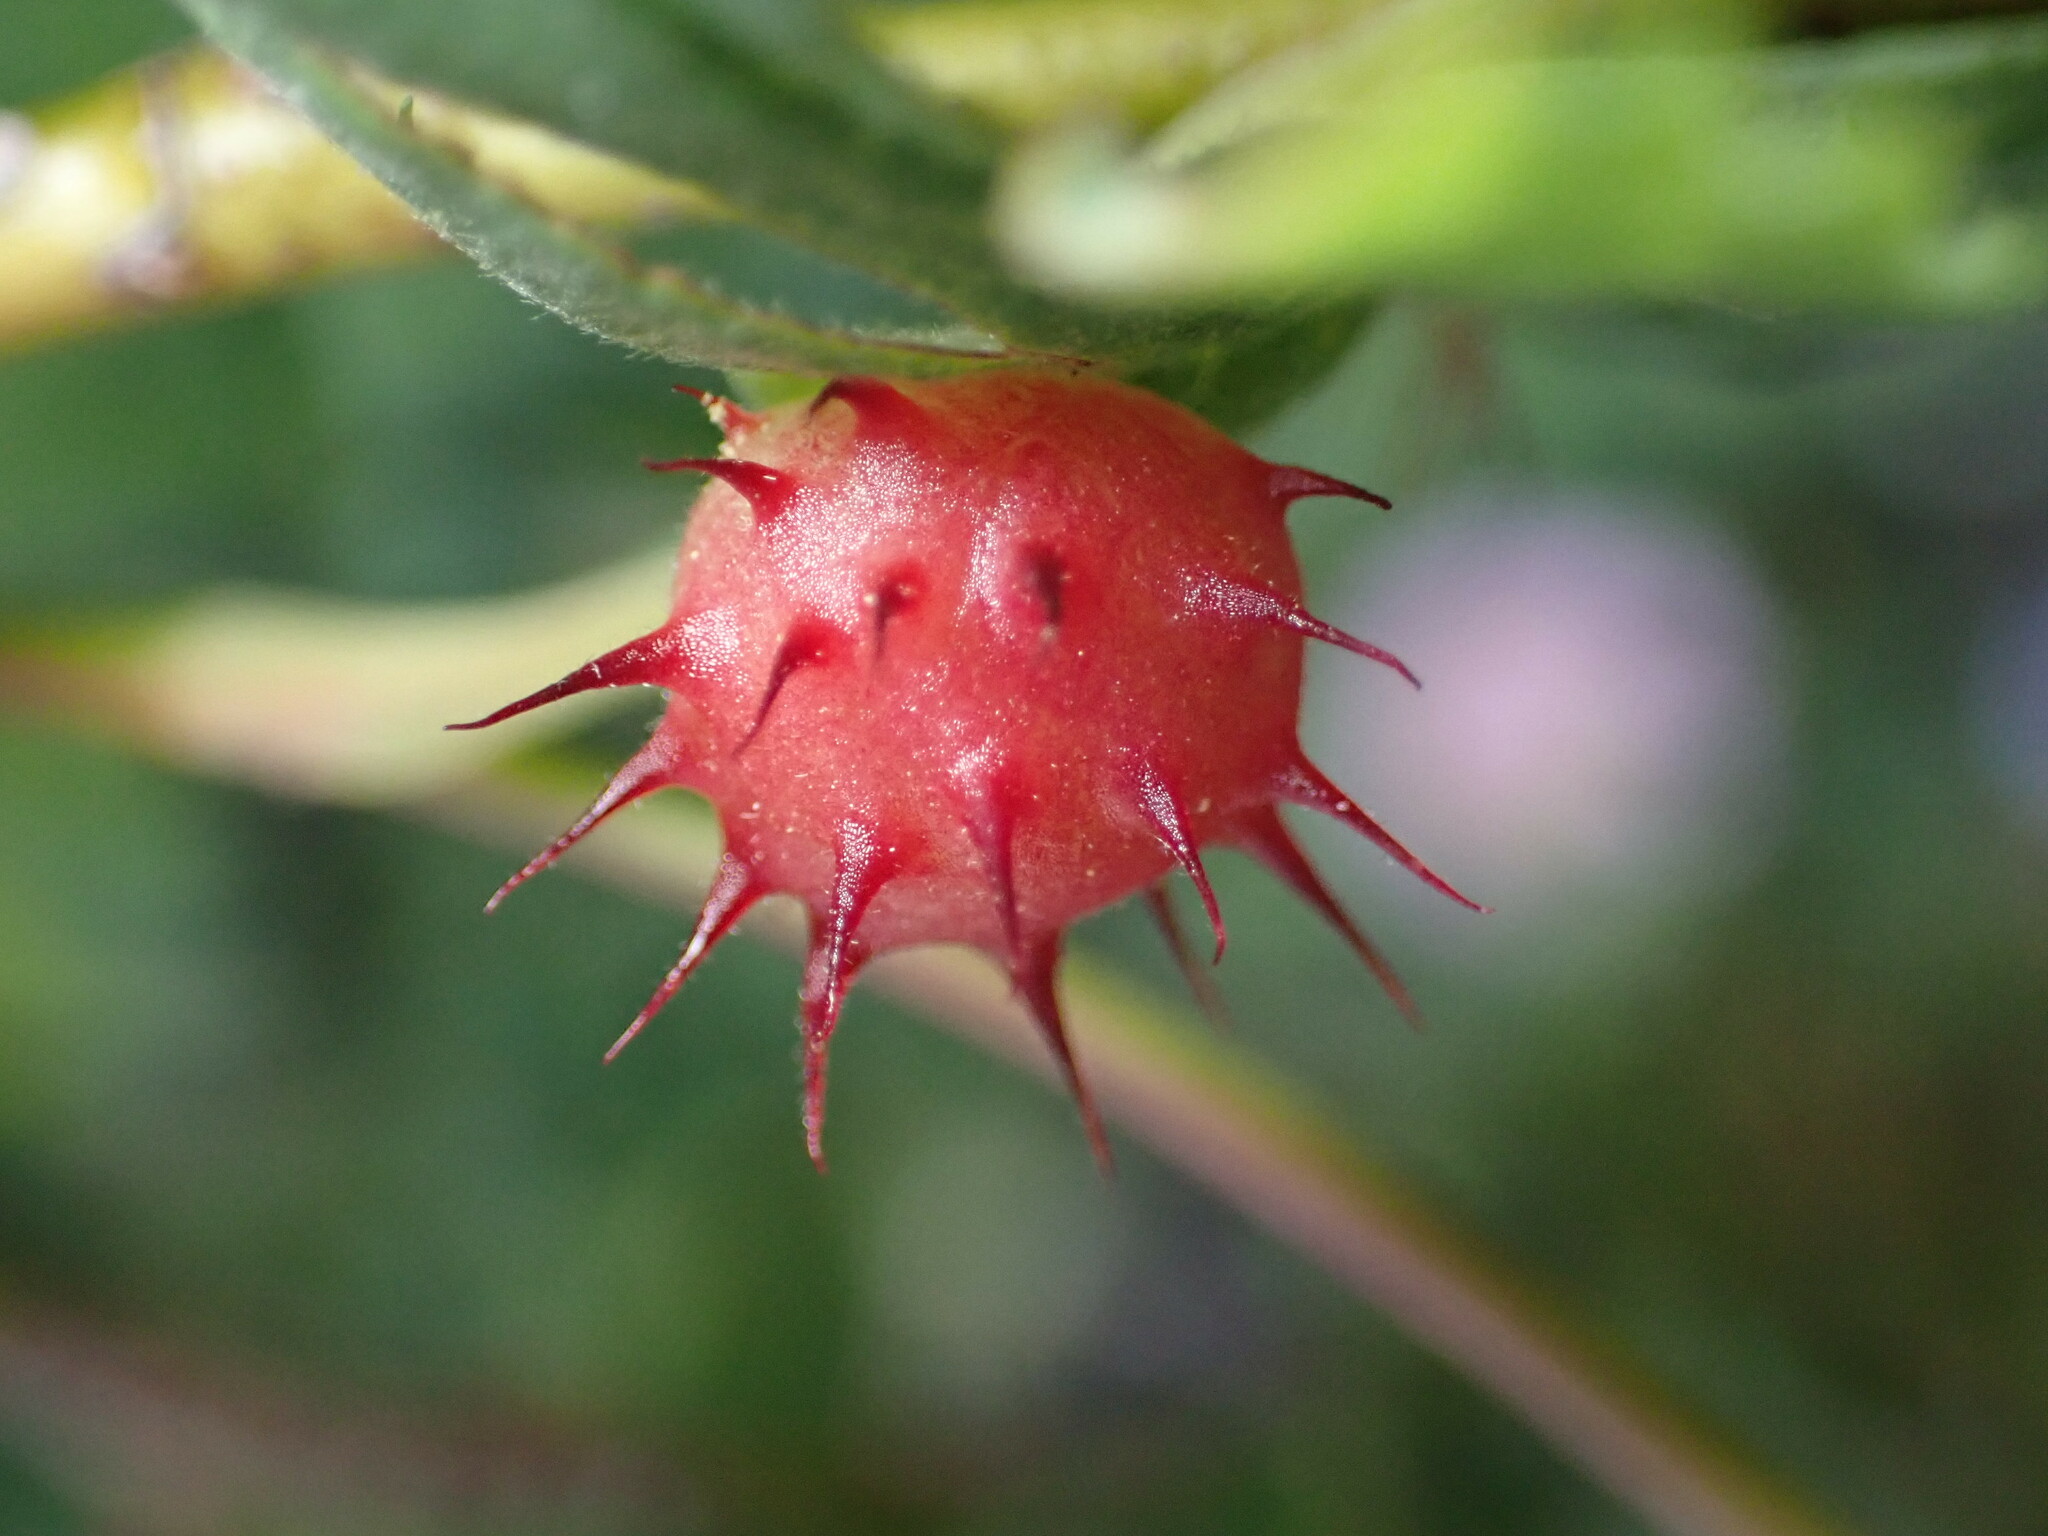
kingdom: Animalia
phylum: Arthropoda
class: Insecta
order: Hymenoptera
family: Cynipidae
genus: Diplolepis
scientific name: Diplolepis polita
